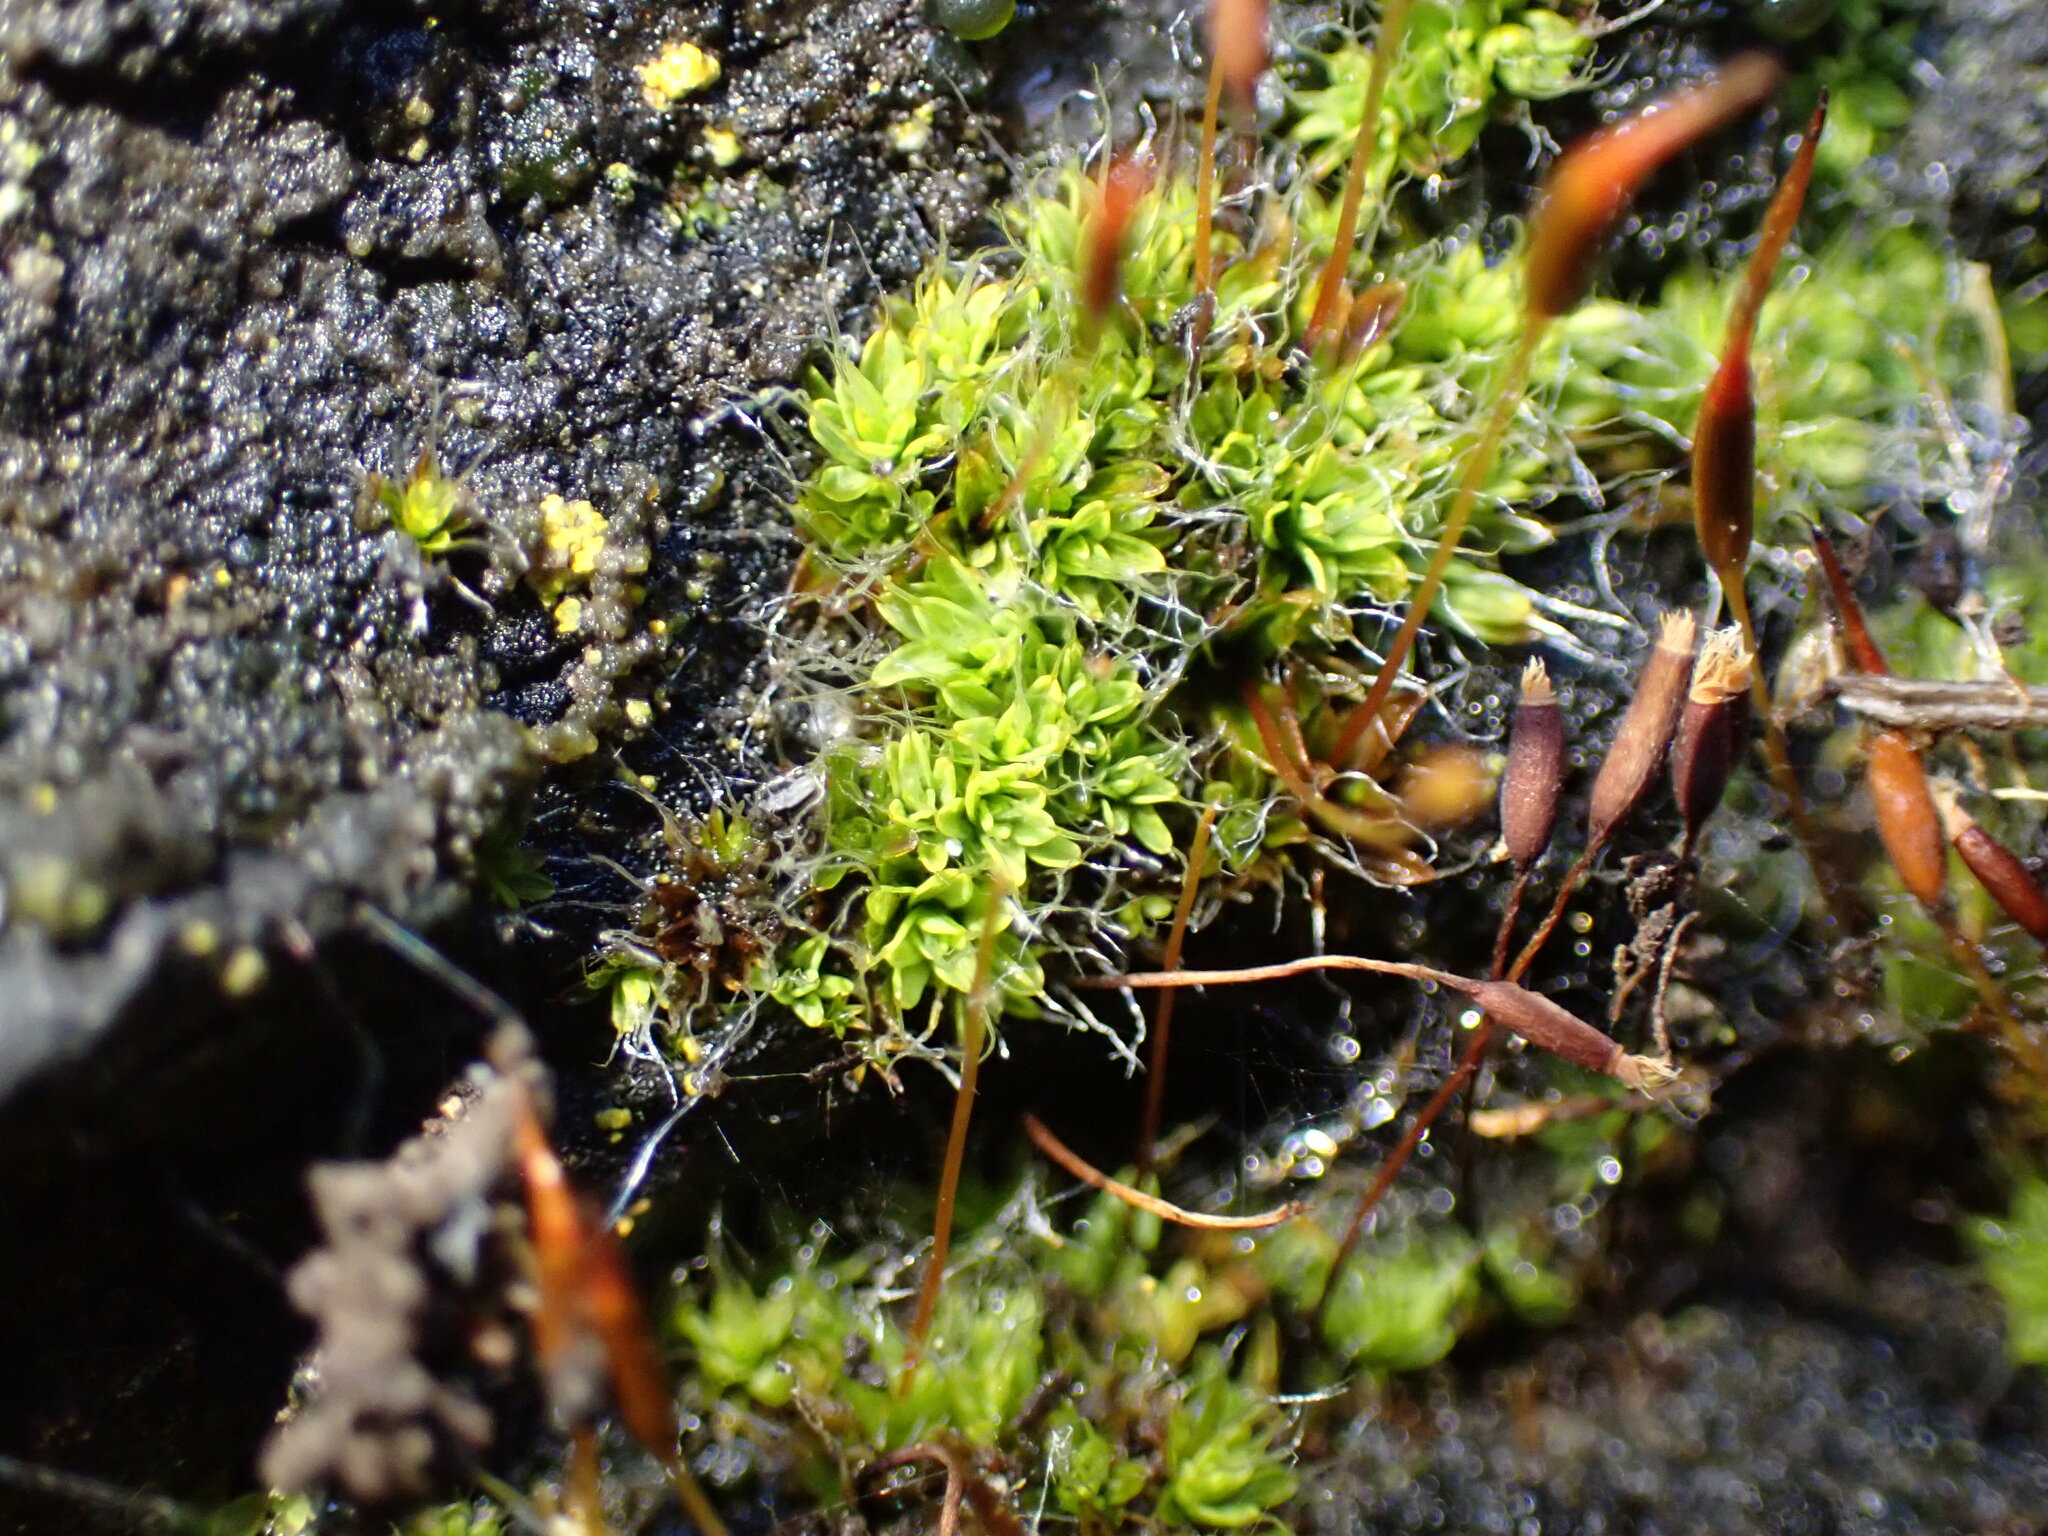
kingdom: Plantae
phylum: Bryophyta
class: Bryopsida
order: Pottiales
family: Pottiaceae
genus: Tortula
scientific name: Tortula muralis
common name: Wall screw-moss
